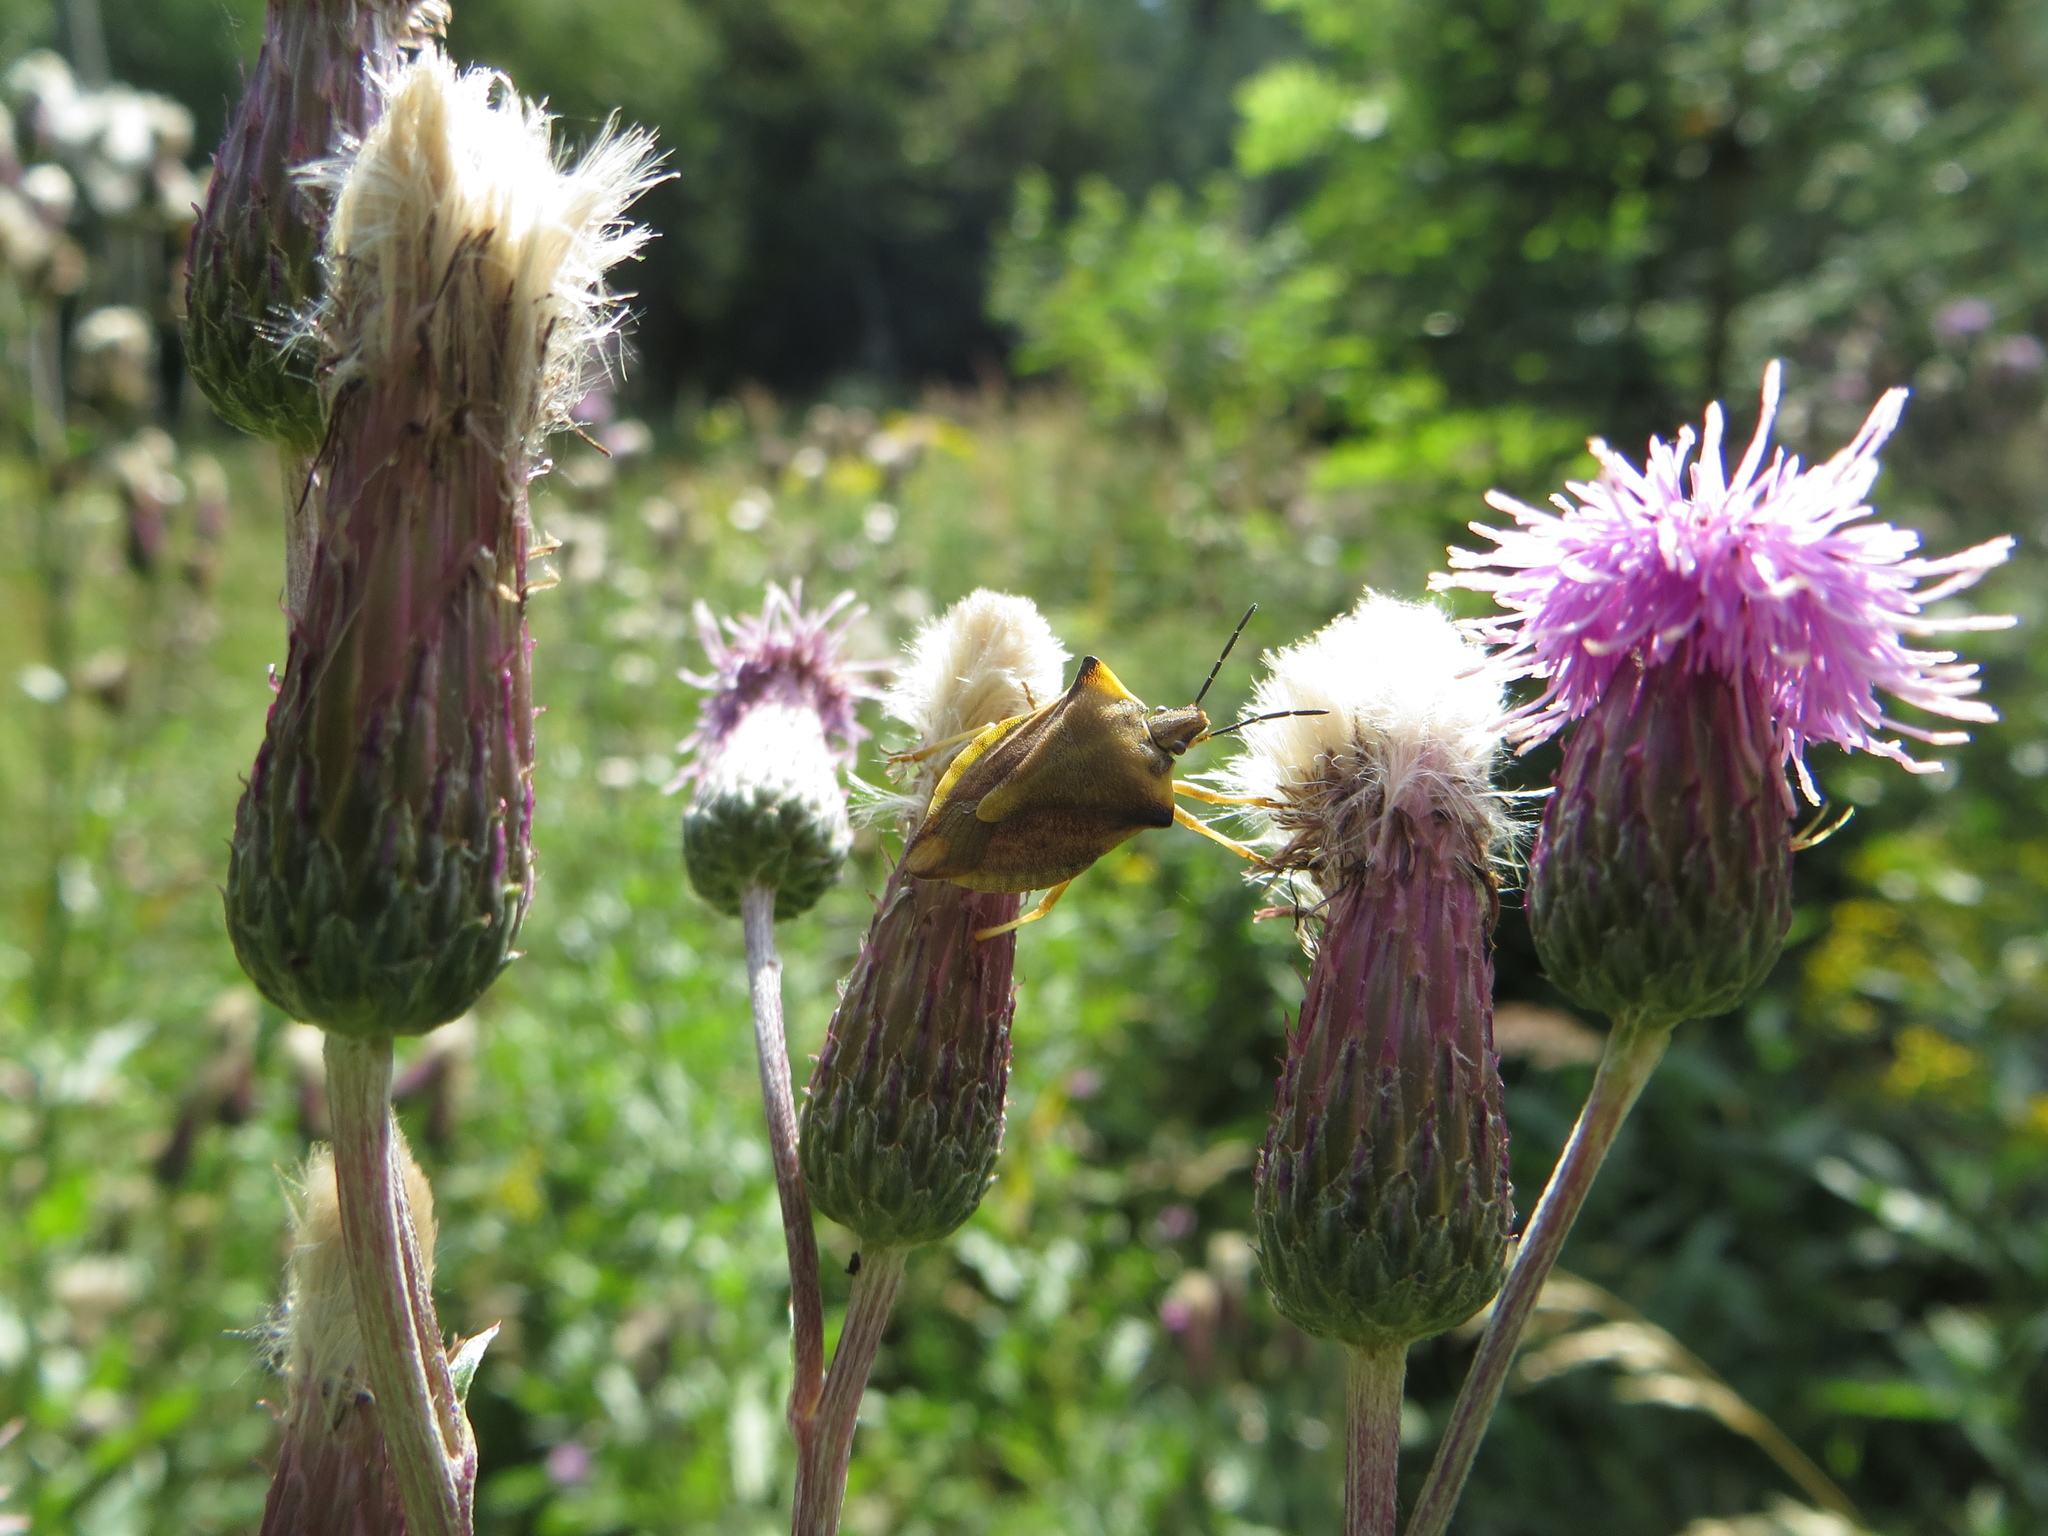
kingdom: Animalia
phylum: Arthropoda
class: Insecta
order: Hemiptera
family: Pentatomidae
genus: Carpocoris
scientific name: Carpocoris fuscispinus
